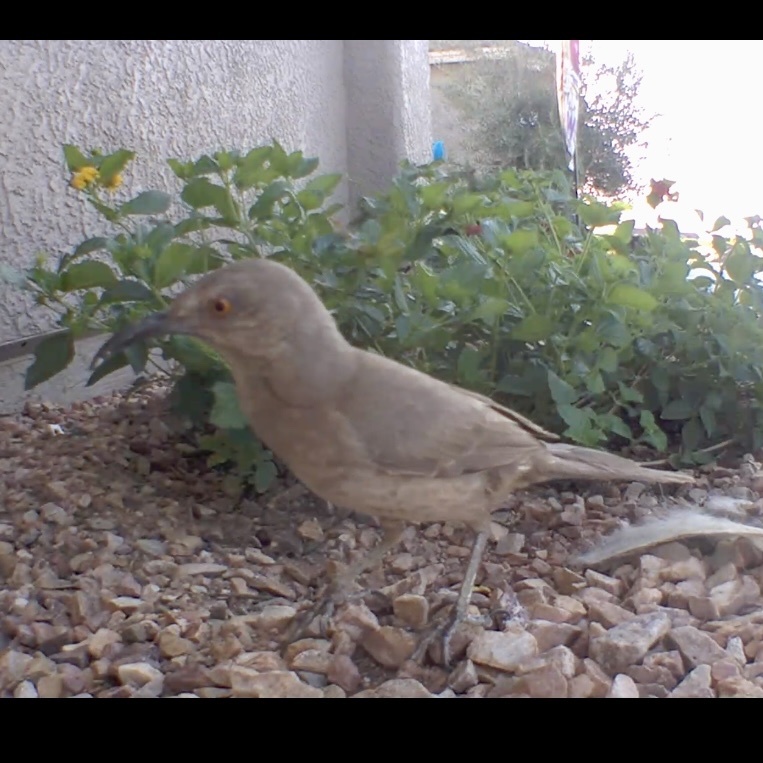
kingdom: Animalia
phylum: Chordata
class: Aves
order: Passeriformes
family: Mimidae
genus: Toxostoma
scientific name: Toxostoma curvirostre
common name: Curve-billed thrasher
